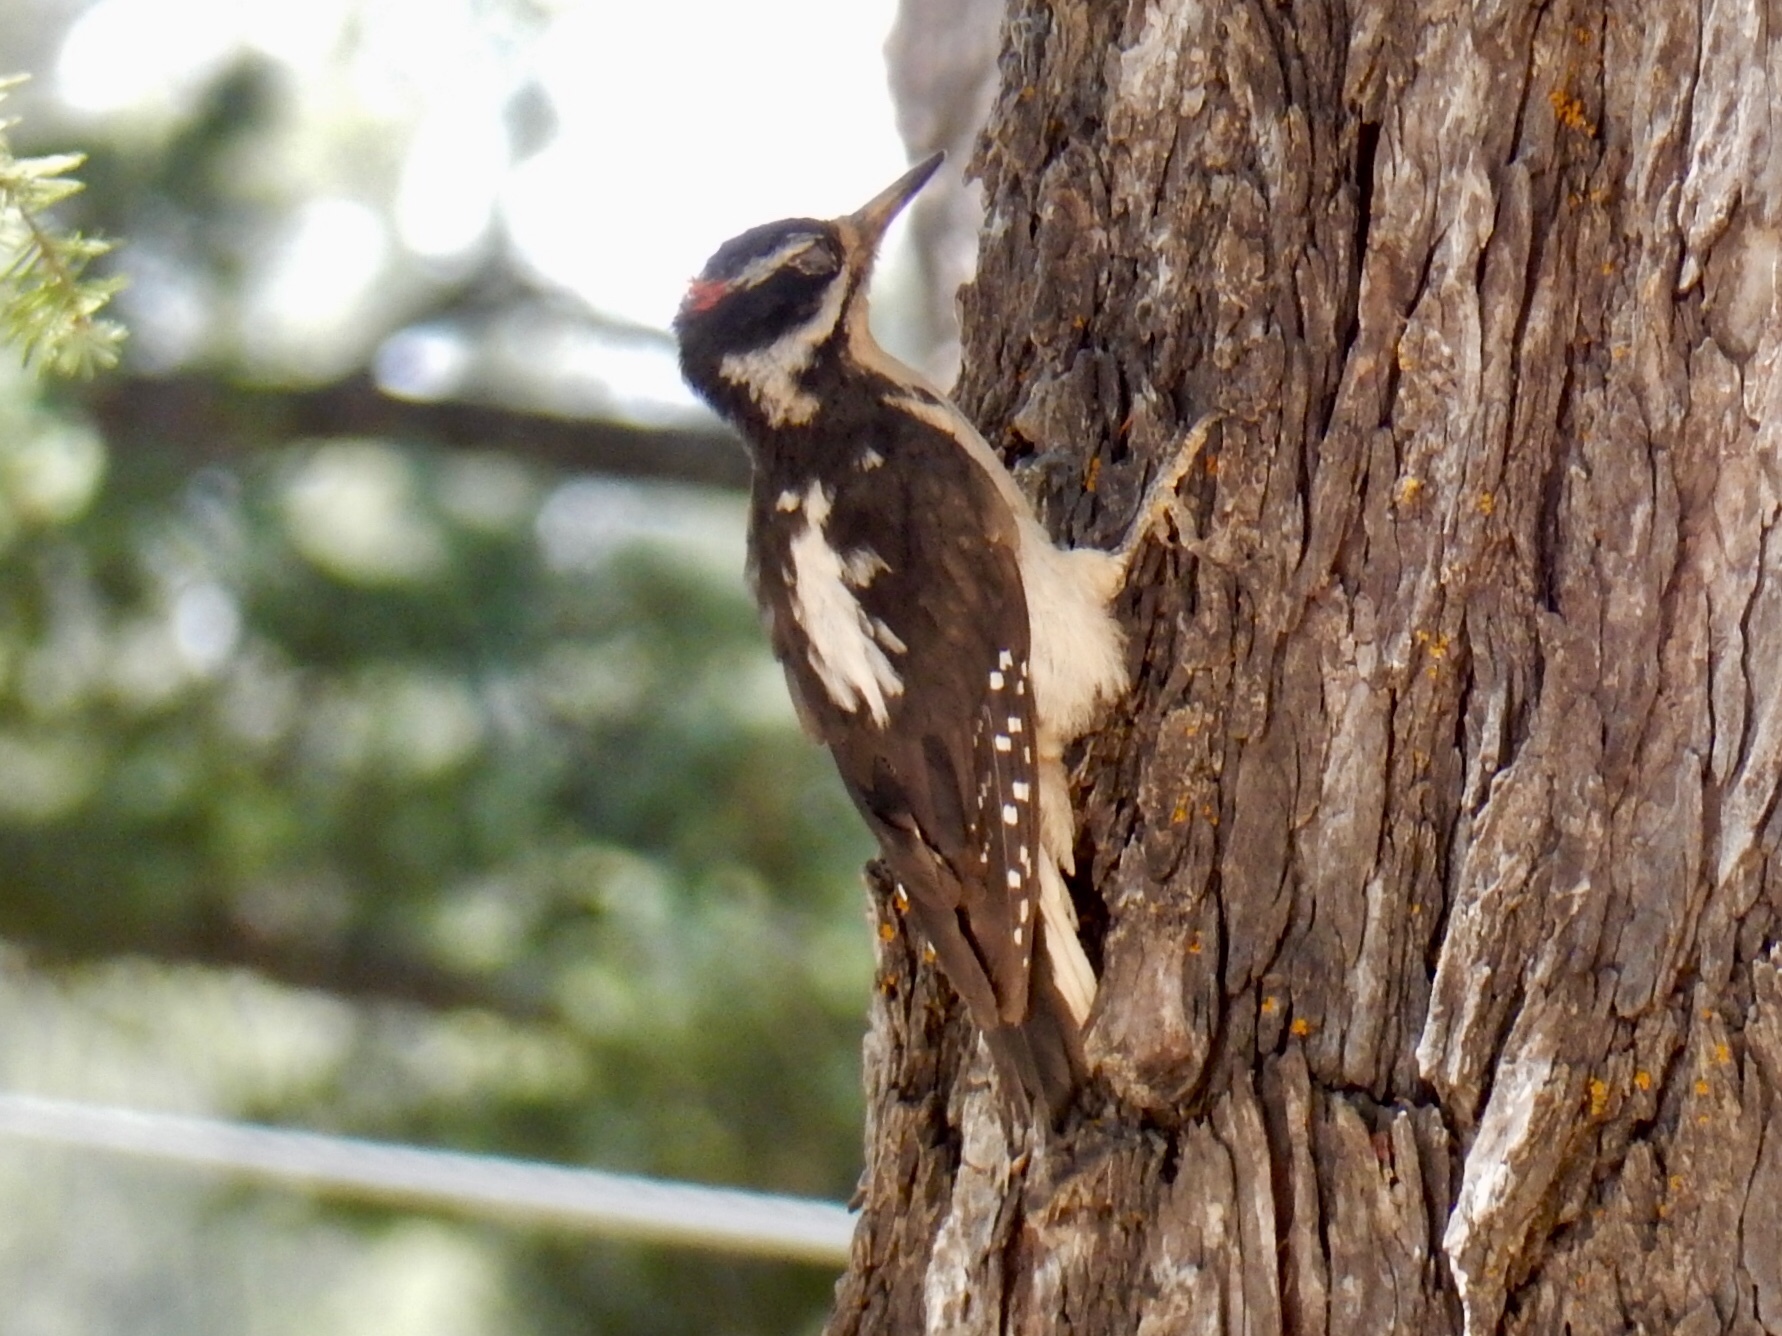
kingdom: Animalia
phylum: Chordata
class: Aves
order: Piciformes
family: Picidae
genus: Leuconotopicus
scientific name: Leuconotopicus villosus
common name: Hairy woodpecker
